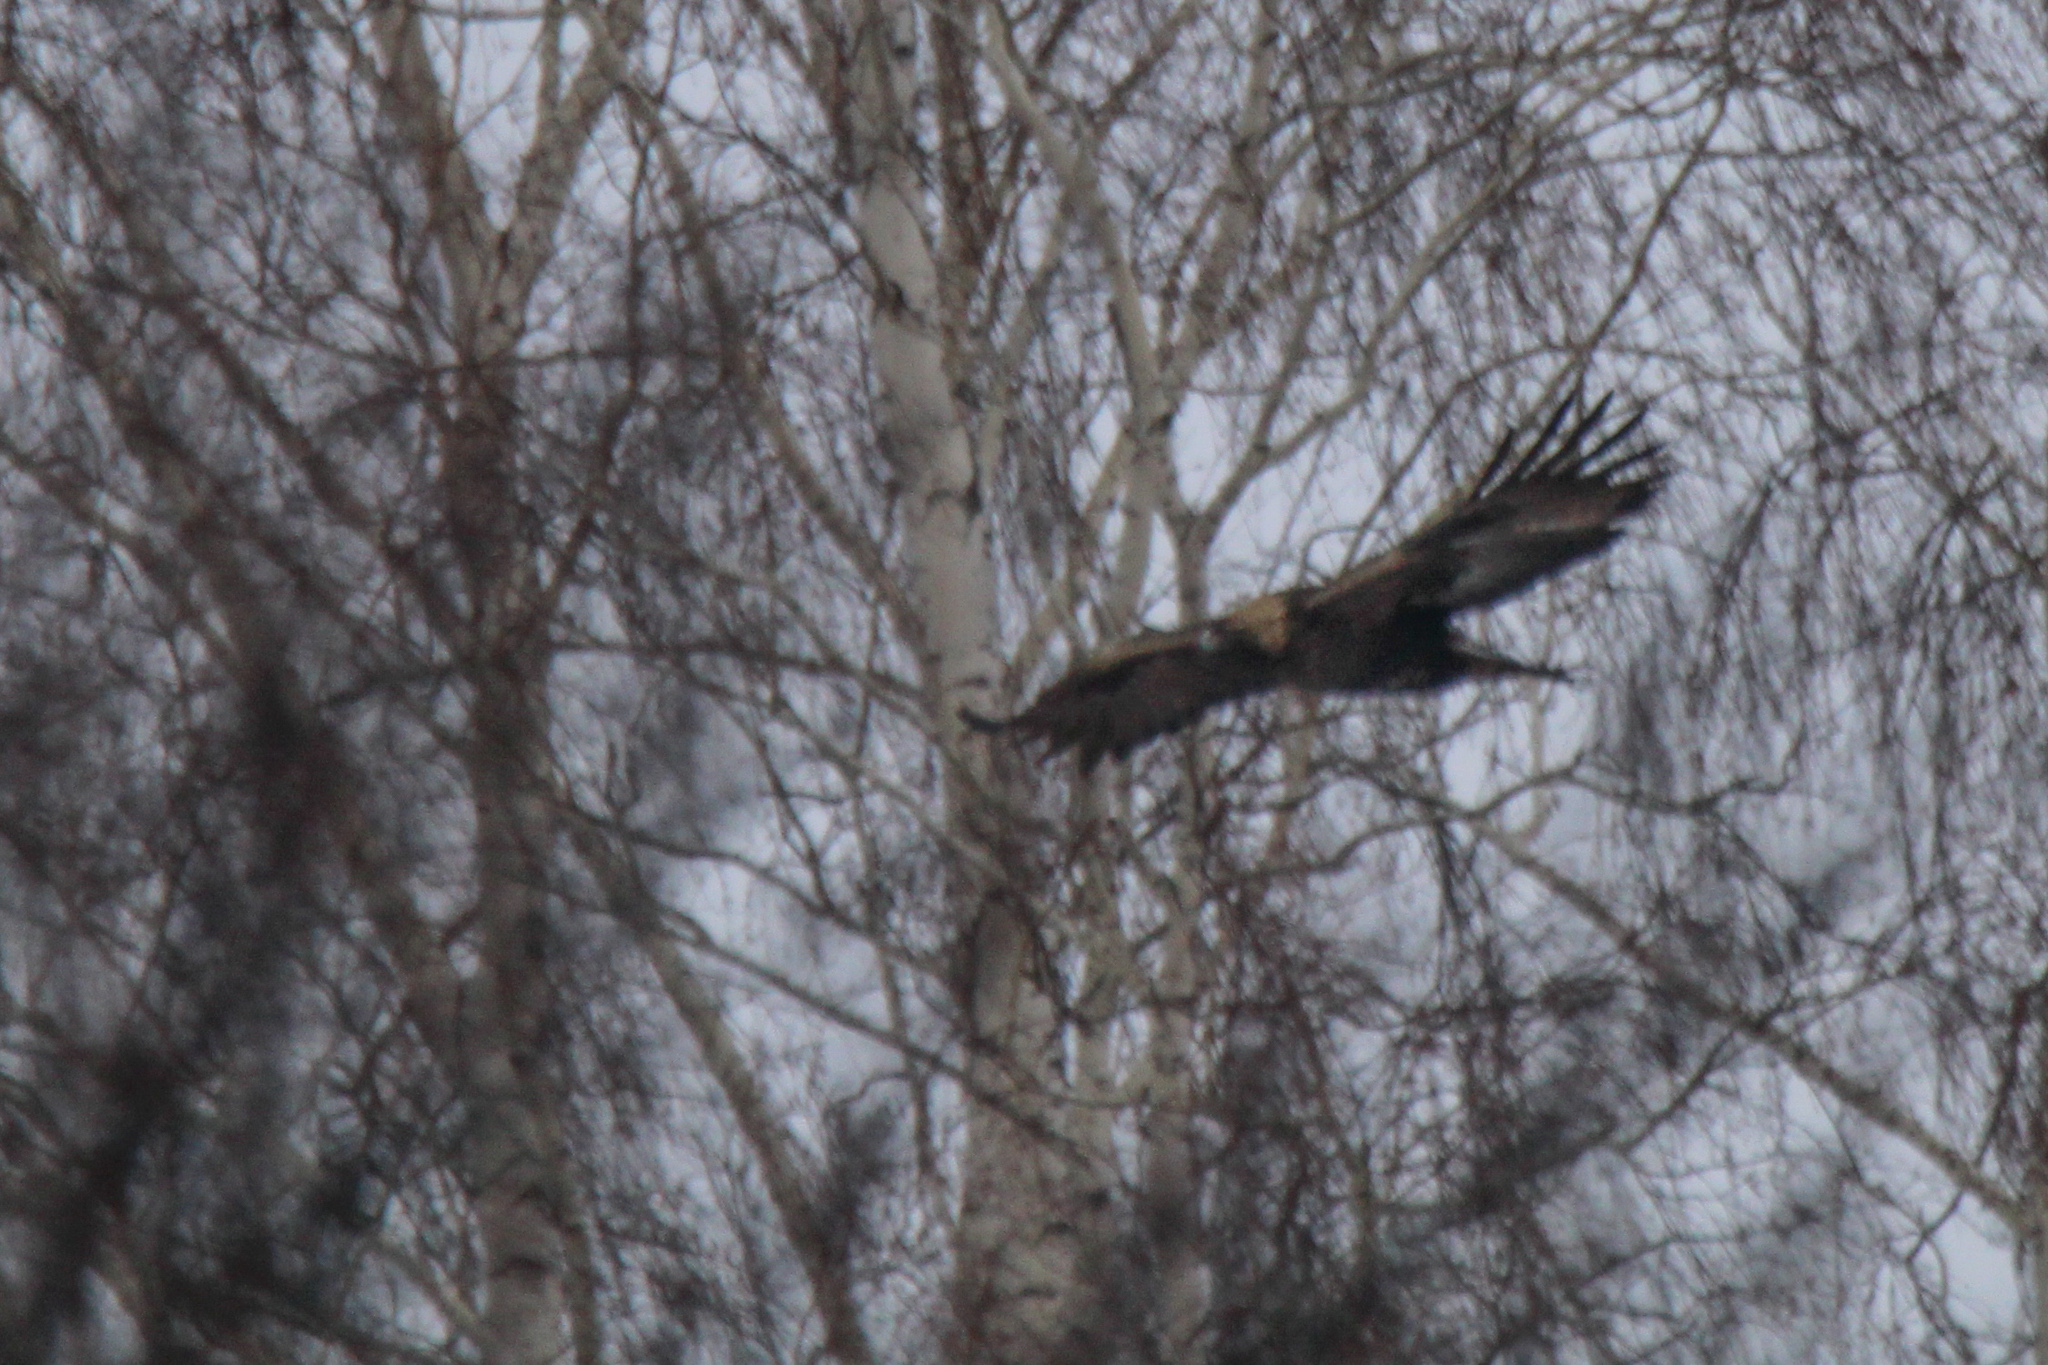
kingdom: Animalia
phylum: Chordata
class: Aves
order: Accipitriformes
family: Accipitridae
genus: Aquila
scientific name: Aquila chrysaetos
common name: Golden eagle
